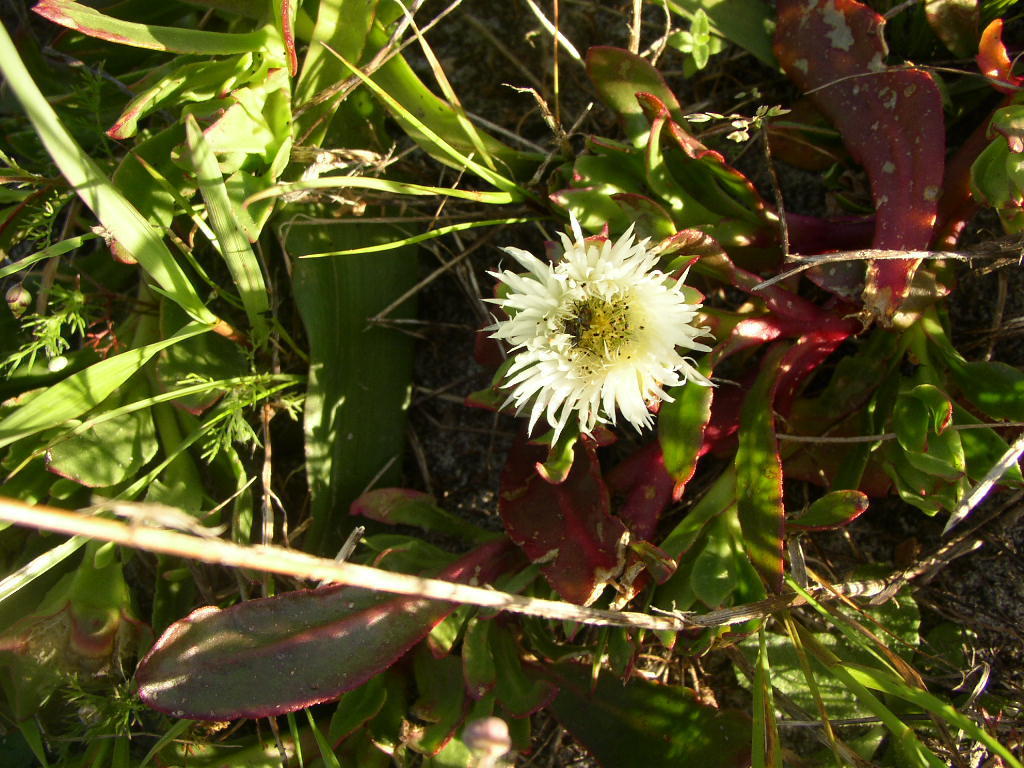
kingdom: Plantae
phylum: Tracheophyta
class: Magnoliopsida
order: Caryophyllales
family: Aizoaceae
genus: Skiatophytum
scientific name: Skiatophytum tripolium
